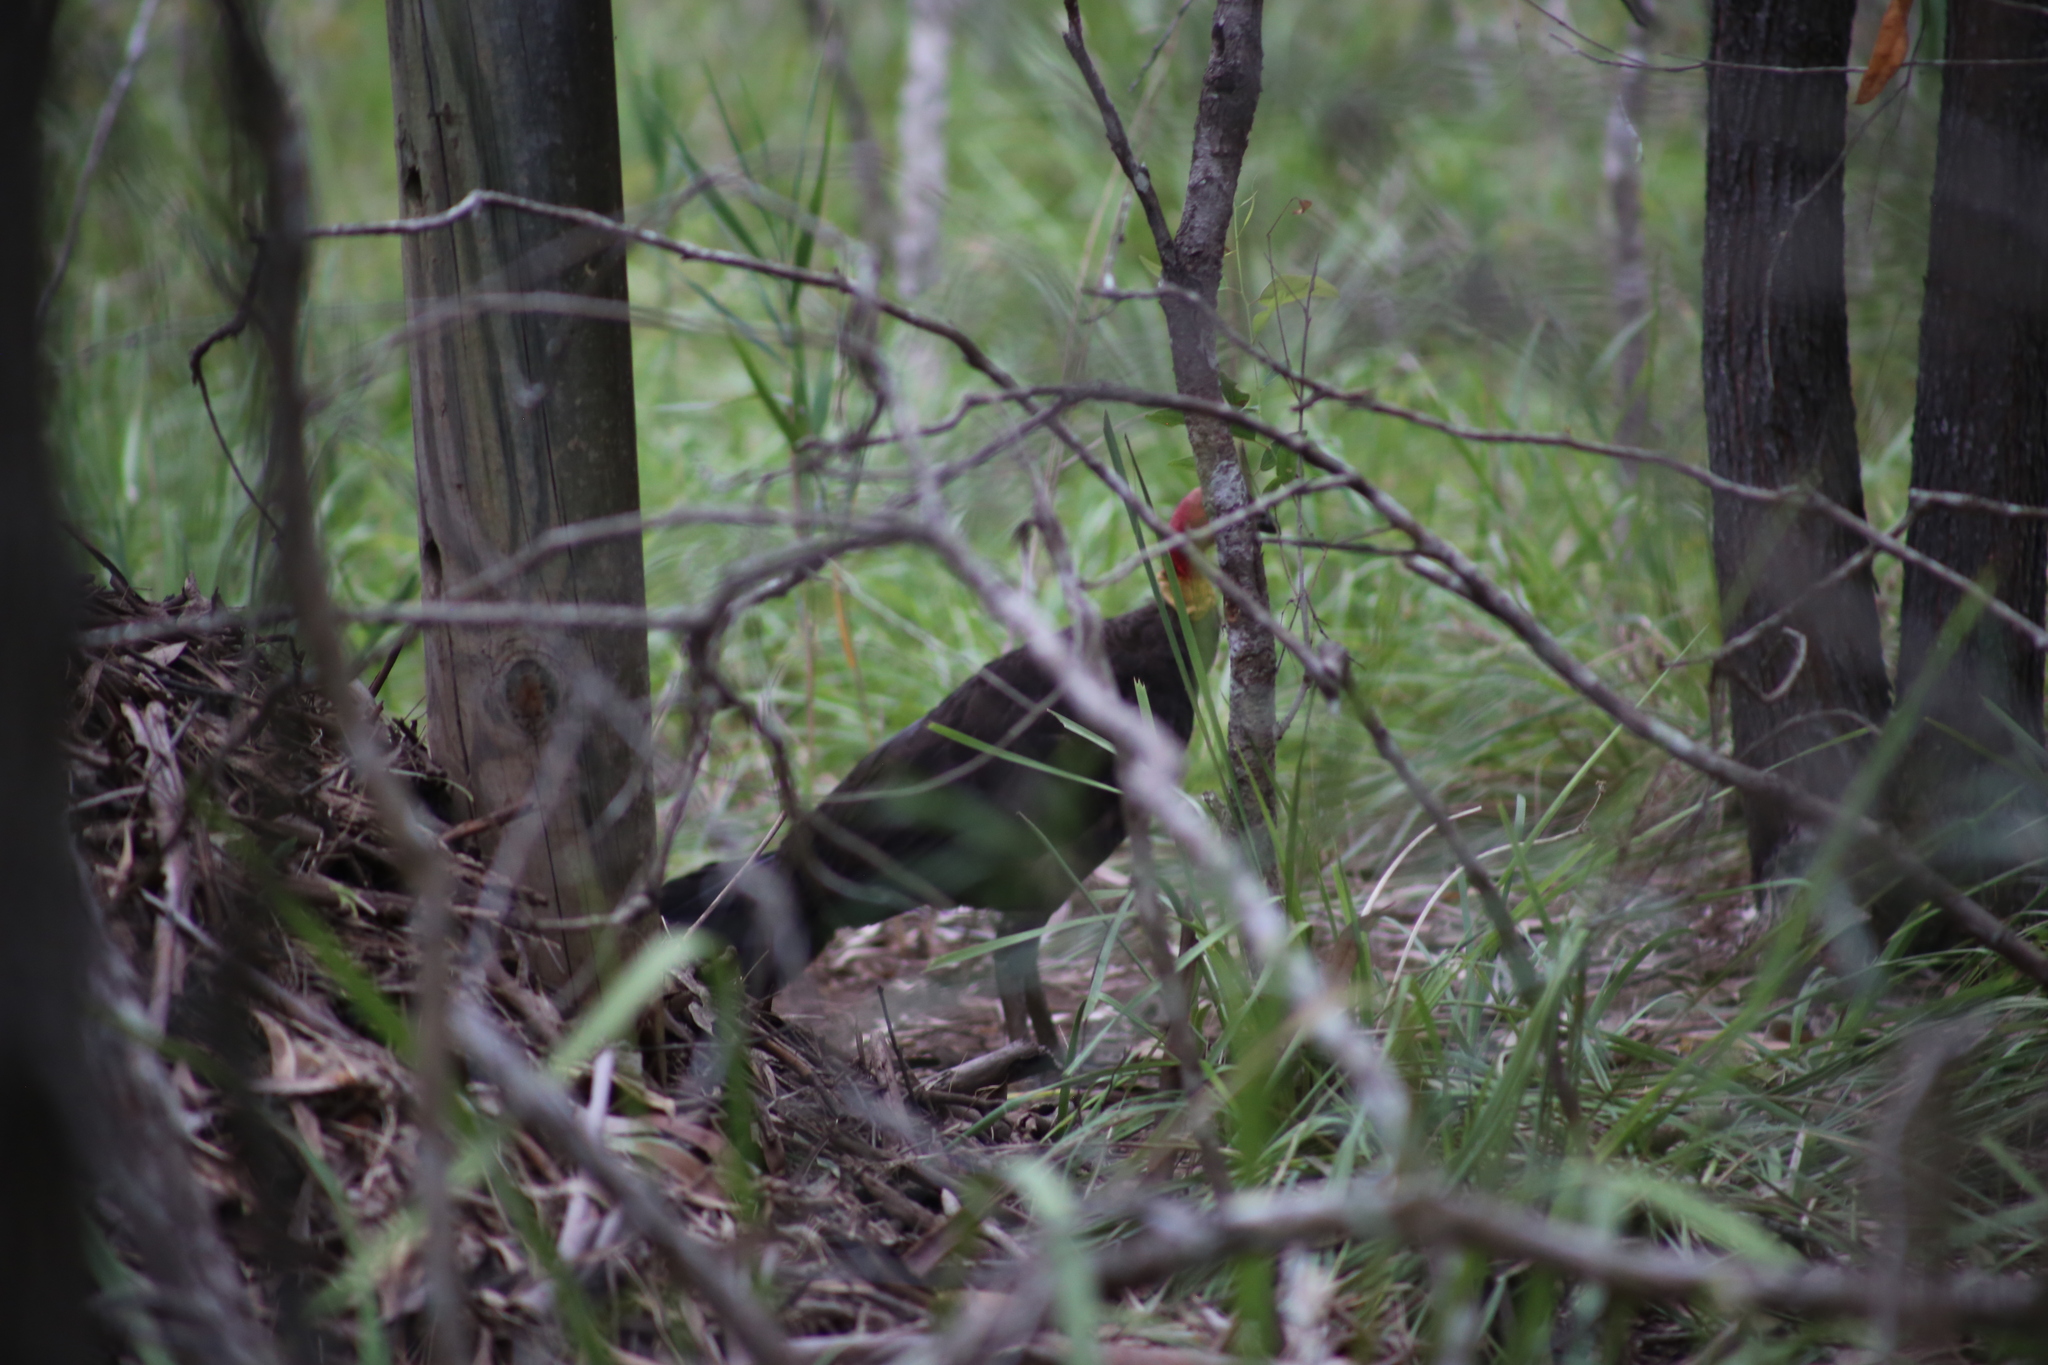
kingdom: Animalia
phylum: Chordata
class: Aves
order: Galliformes
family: Megapodiidae
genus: Alectura
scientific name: Alectura lathami
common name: Australian brushturkey
